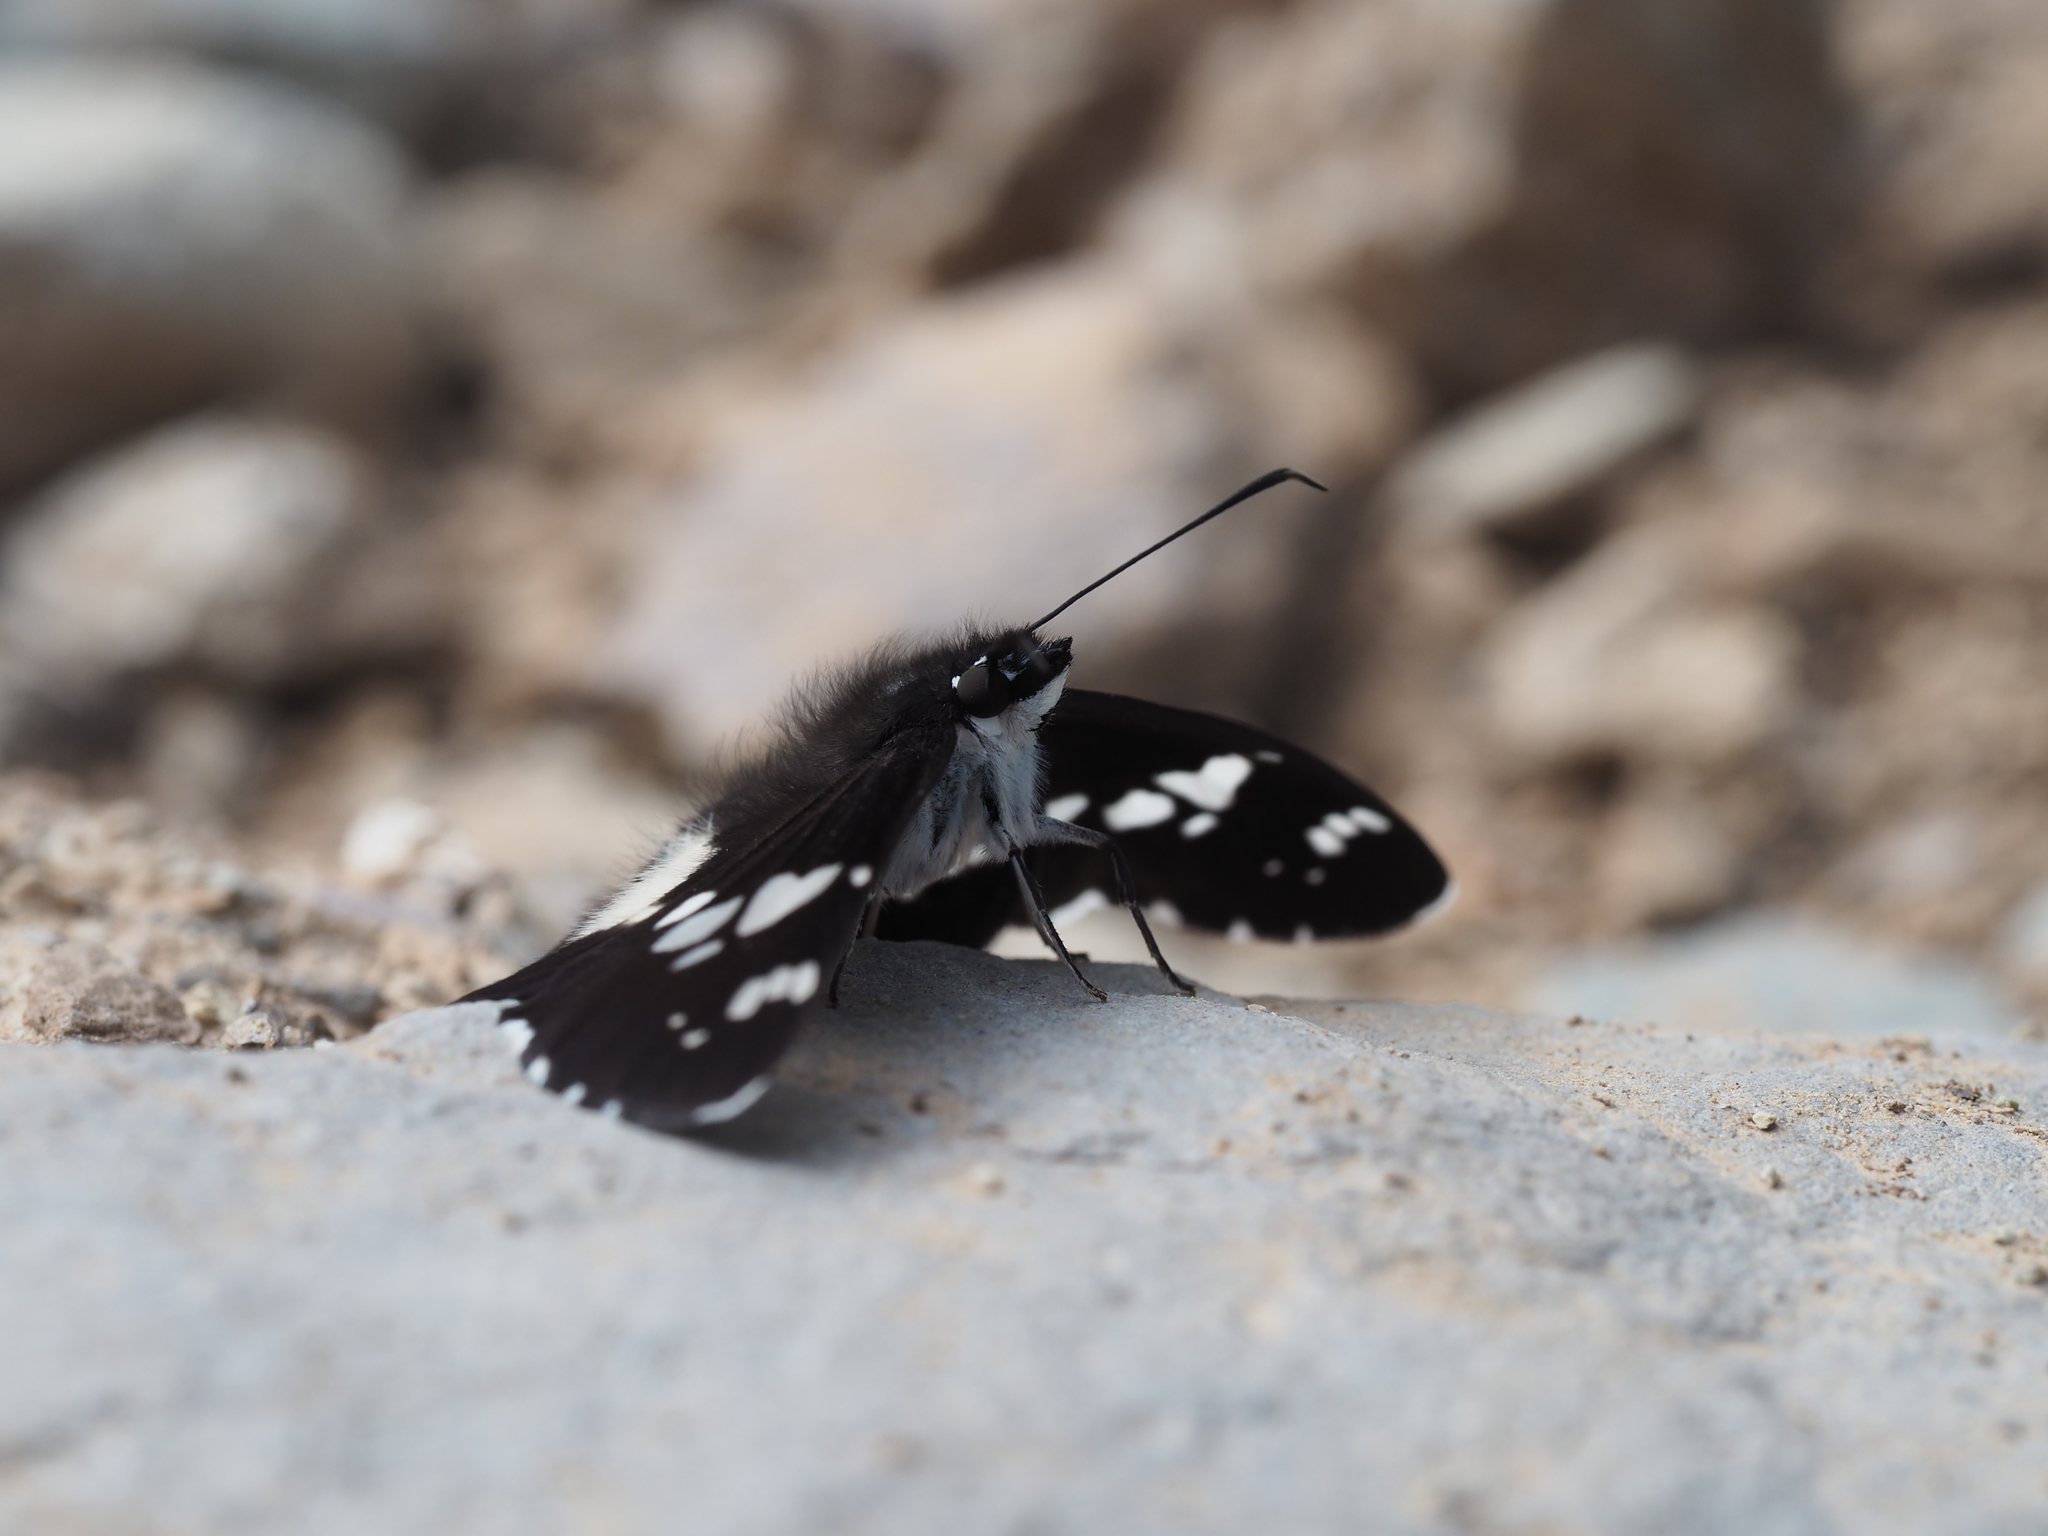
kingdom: Animalia
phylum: Arthropoda
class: Insecta
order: Lepidoptera
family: Hesperiidae
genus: Daimio
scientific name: Daimio tethys
